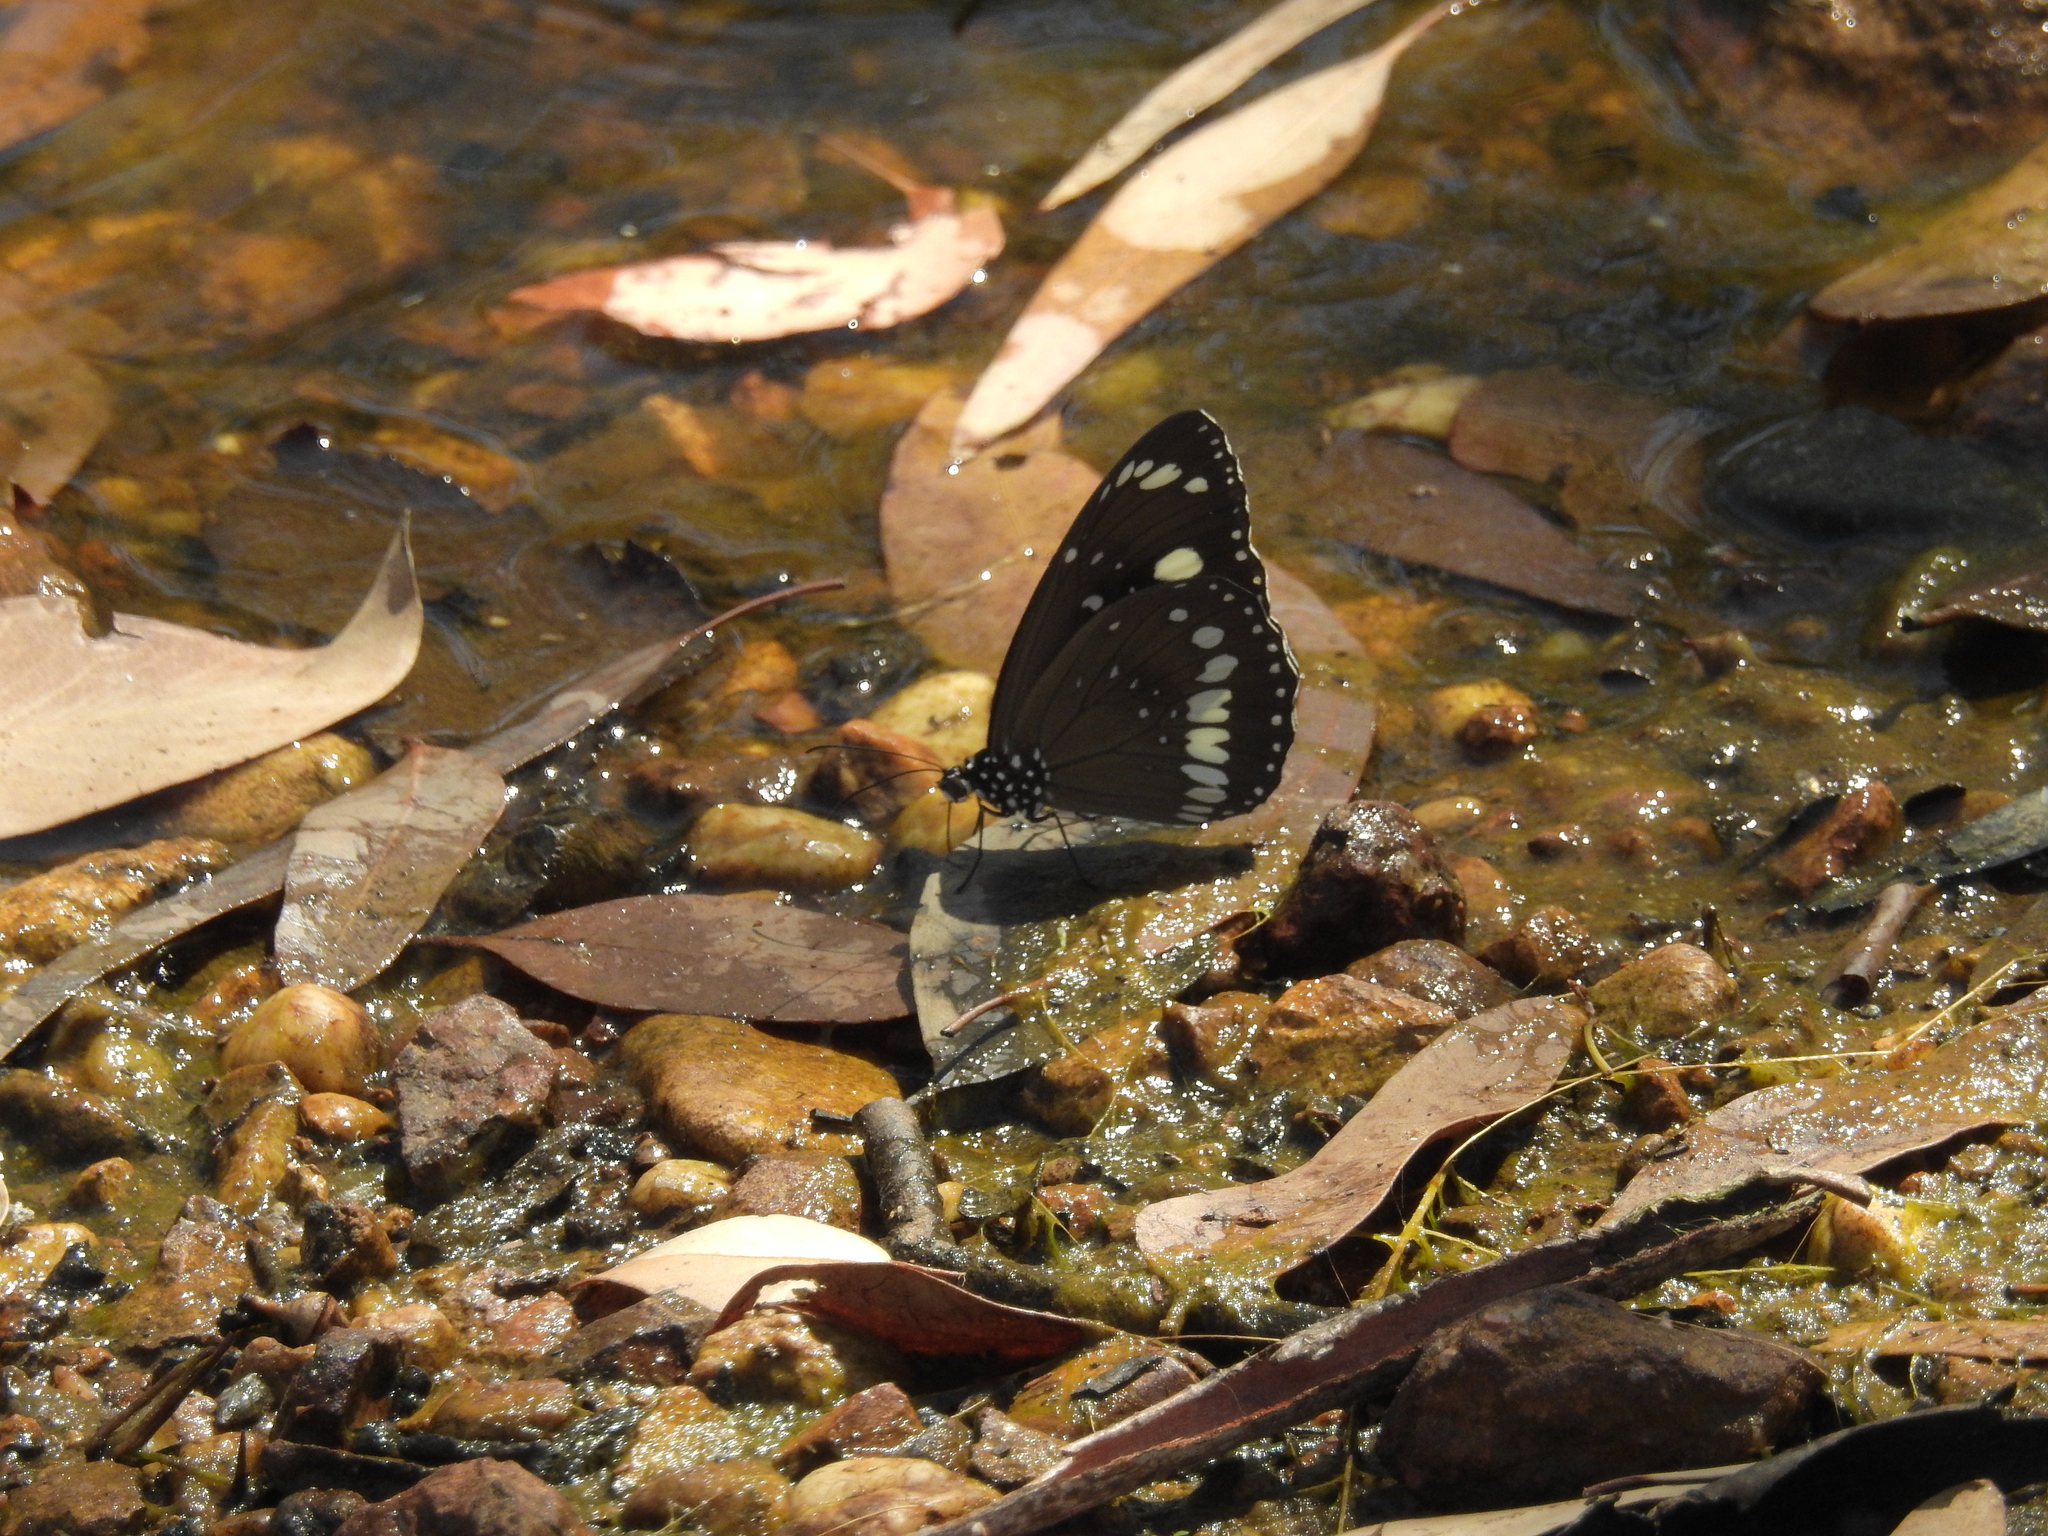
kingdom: Animalia
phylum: Arthropoda
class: Insecta
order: Lepidoptera
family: Nymphalidae
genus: Euploea
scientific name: Euploea core
